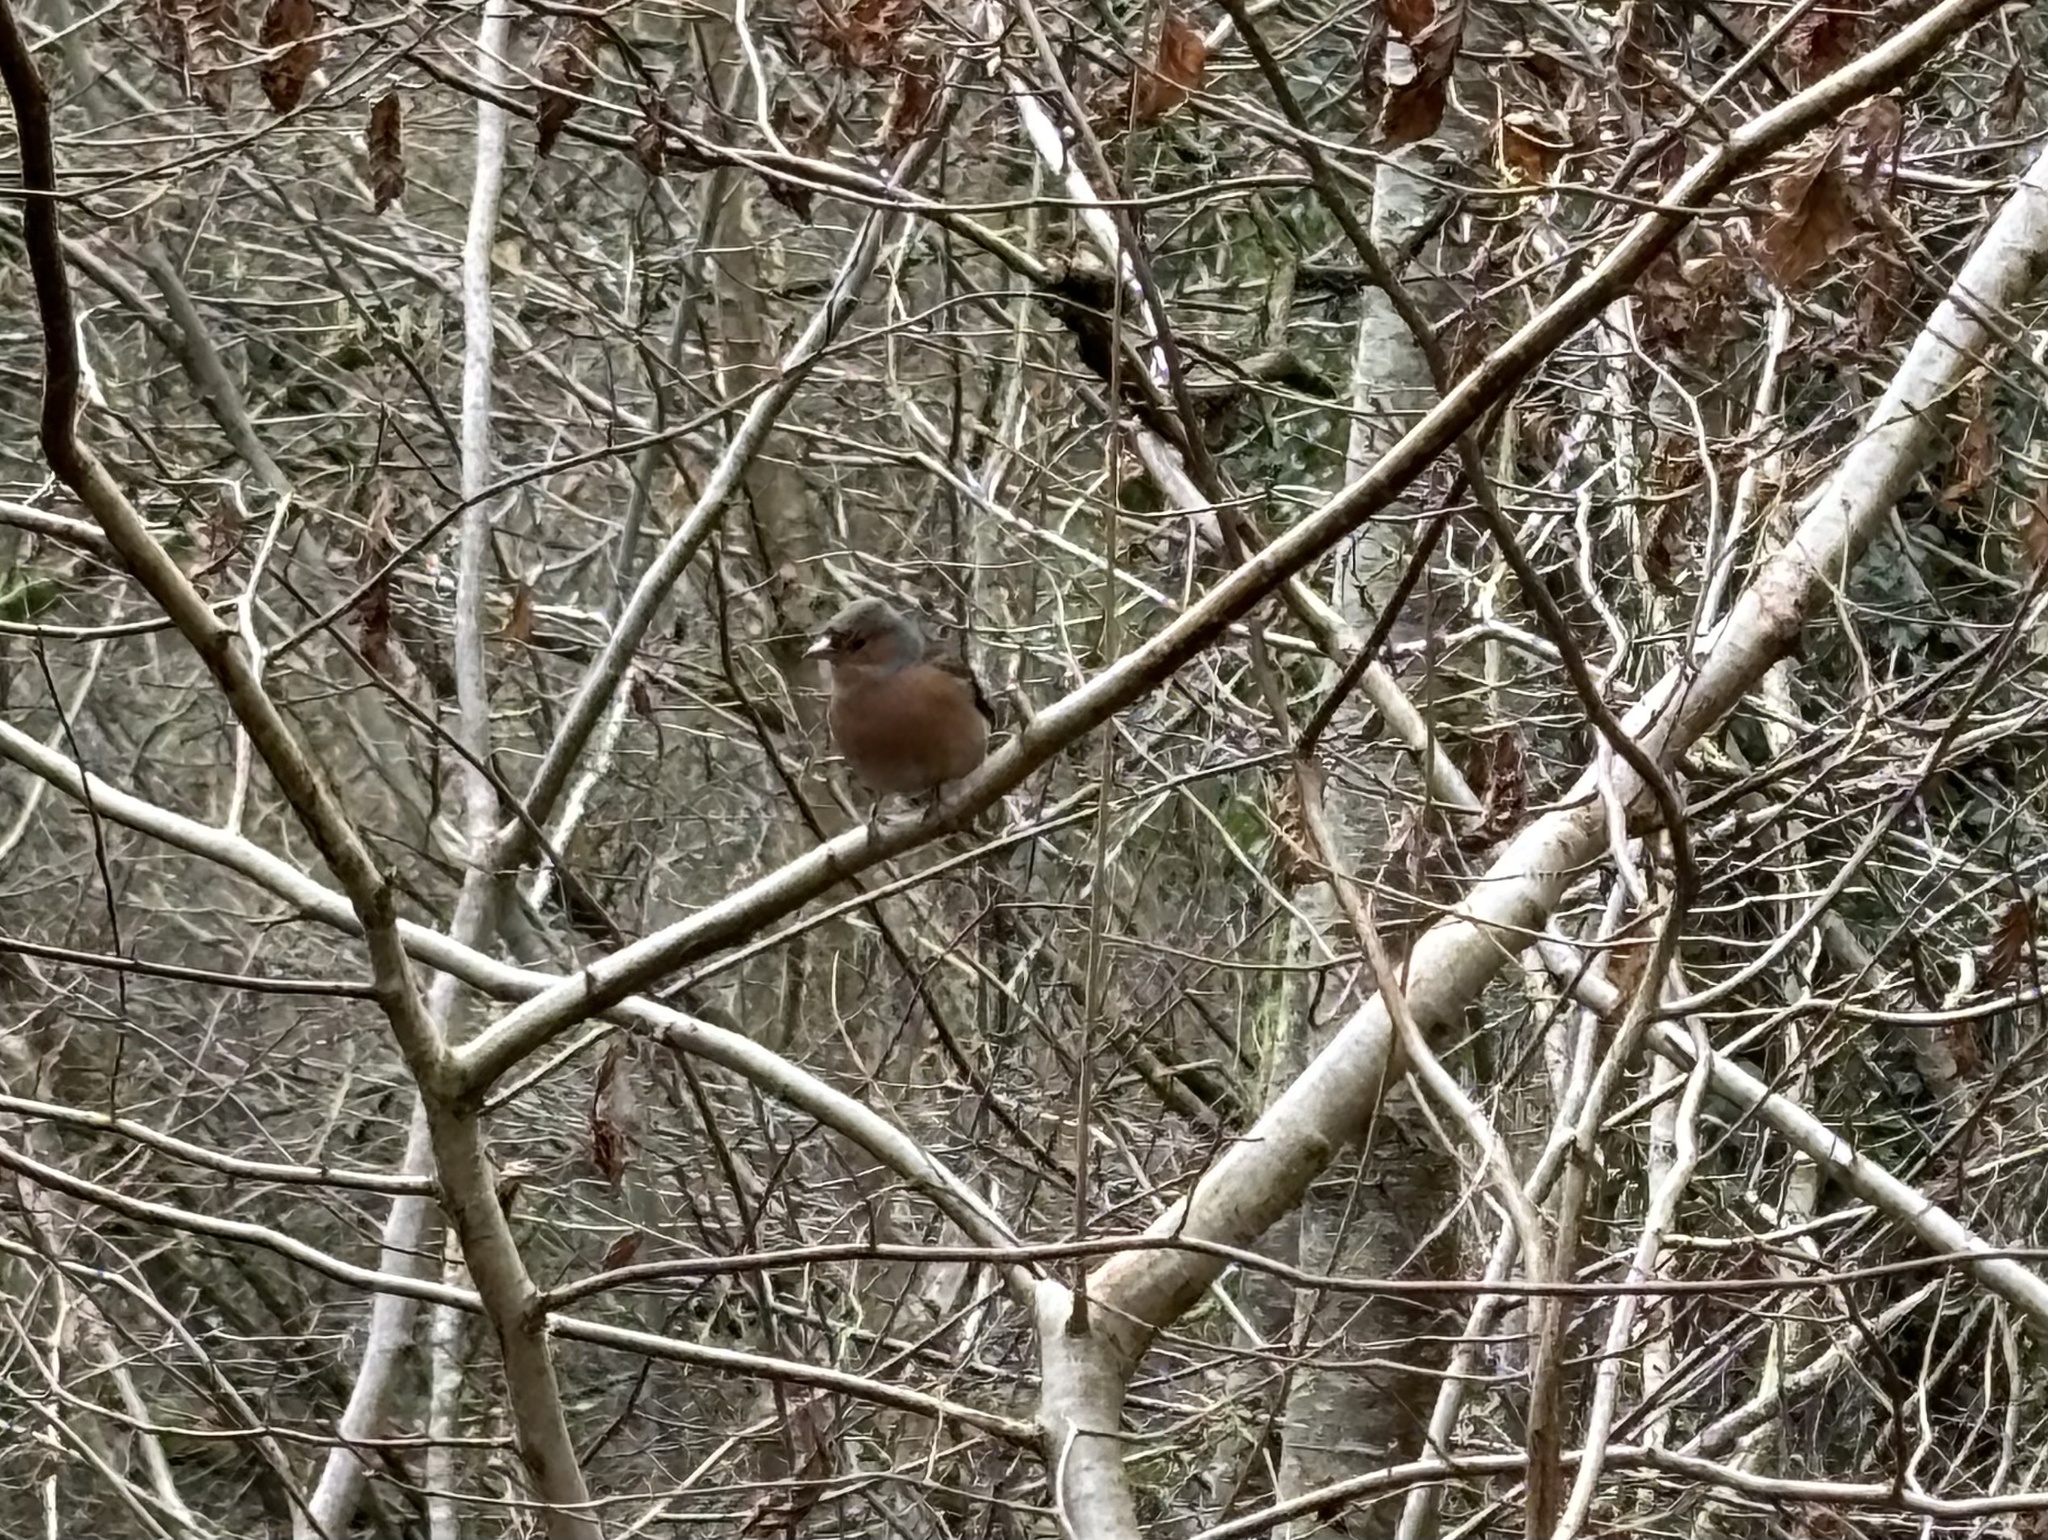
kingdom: Animalia
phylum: Chordata
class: Aves
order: Passeriformes
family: Fringillidae
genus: Fringilla
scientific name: Fringilla coelebs
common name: Common chaffinch
